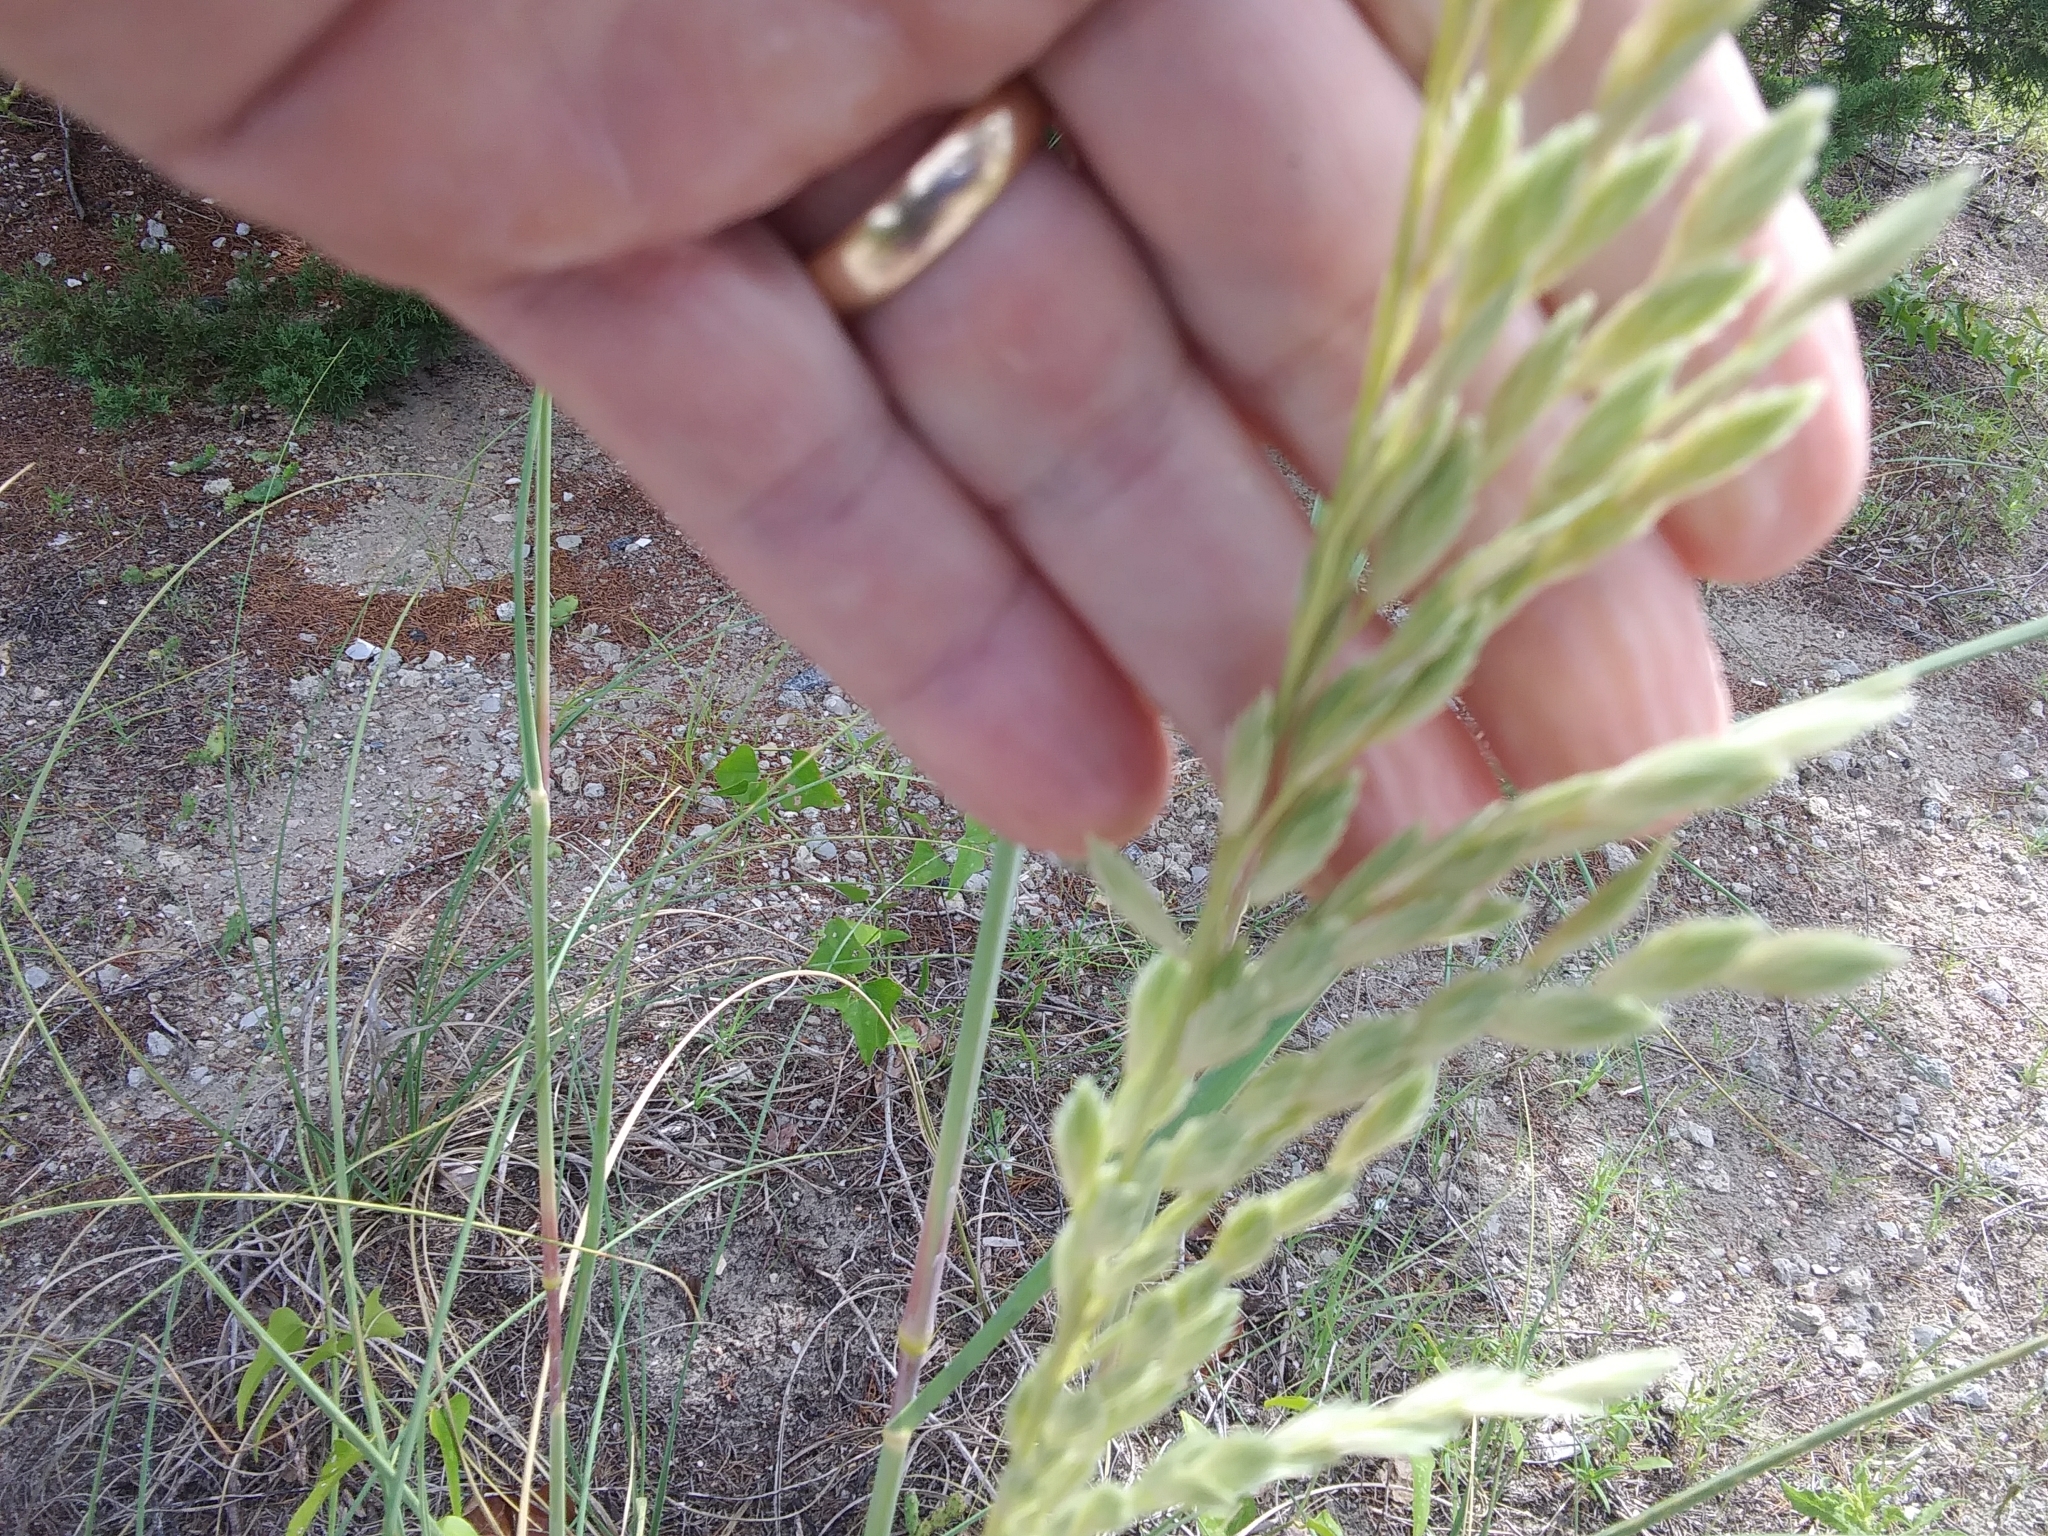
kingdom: Plantae
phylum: Tracheophyta
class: Liliopsida
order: Poales
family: Poaceae
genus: Uniola
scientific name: Uniola paniculata
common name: Seaside-oats
